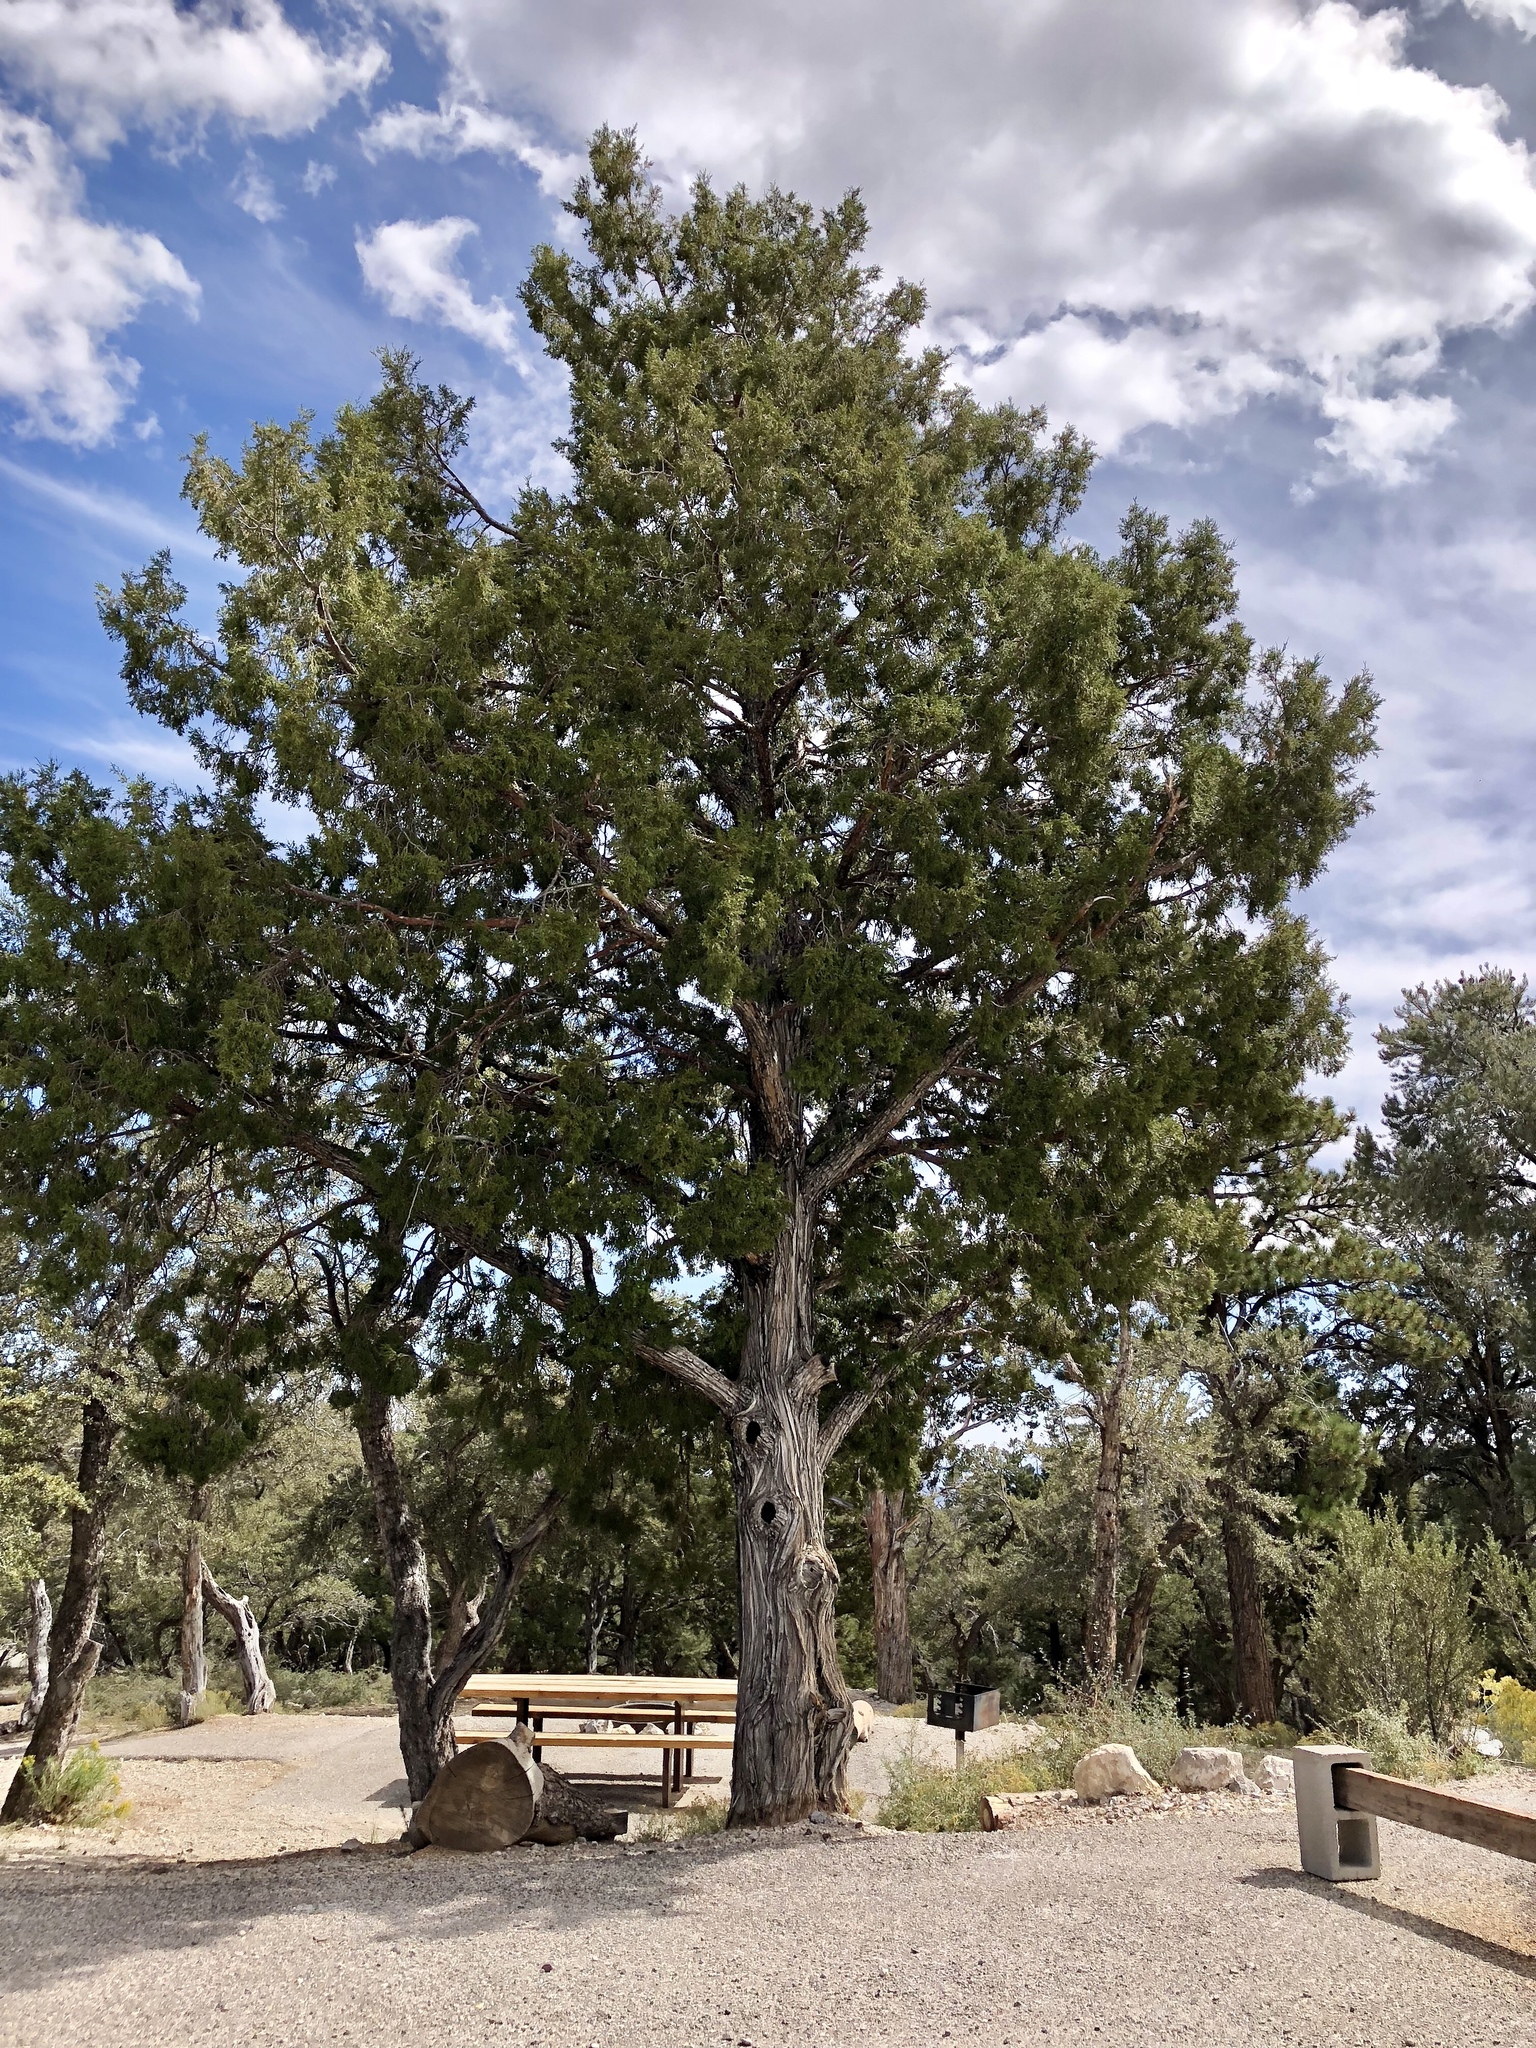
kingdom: Plantae
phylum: Tracheophyta
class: Pinopsida
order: Pinales
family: Cupressaceae
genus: Juniperus
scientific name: Juniperus osteosperma
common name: Utah juniper
